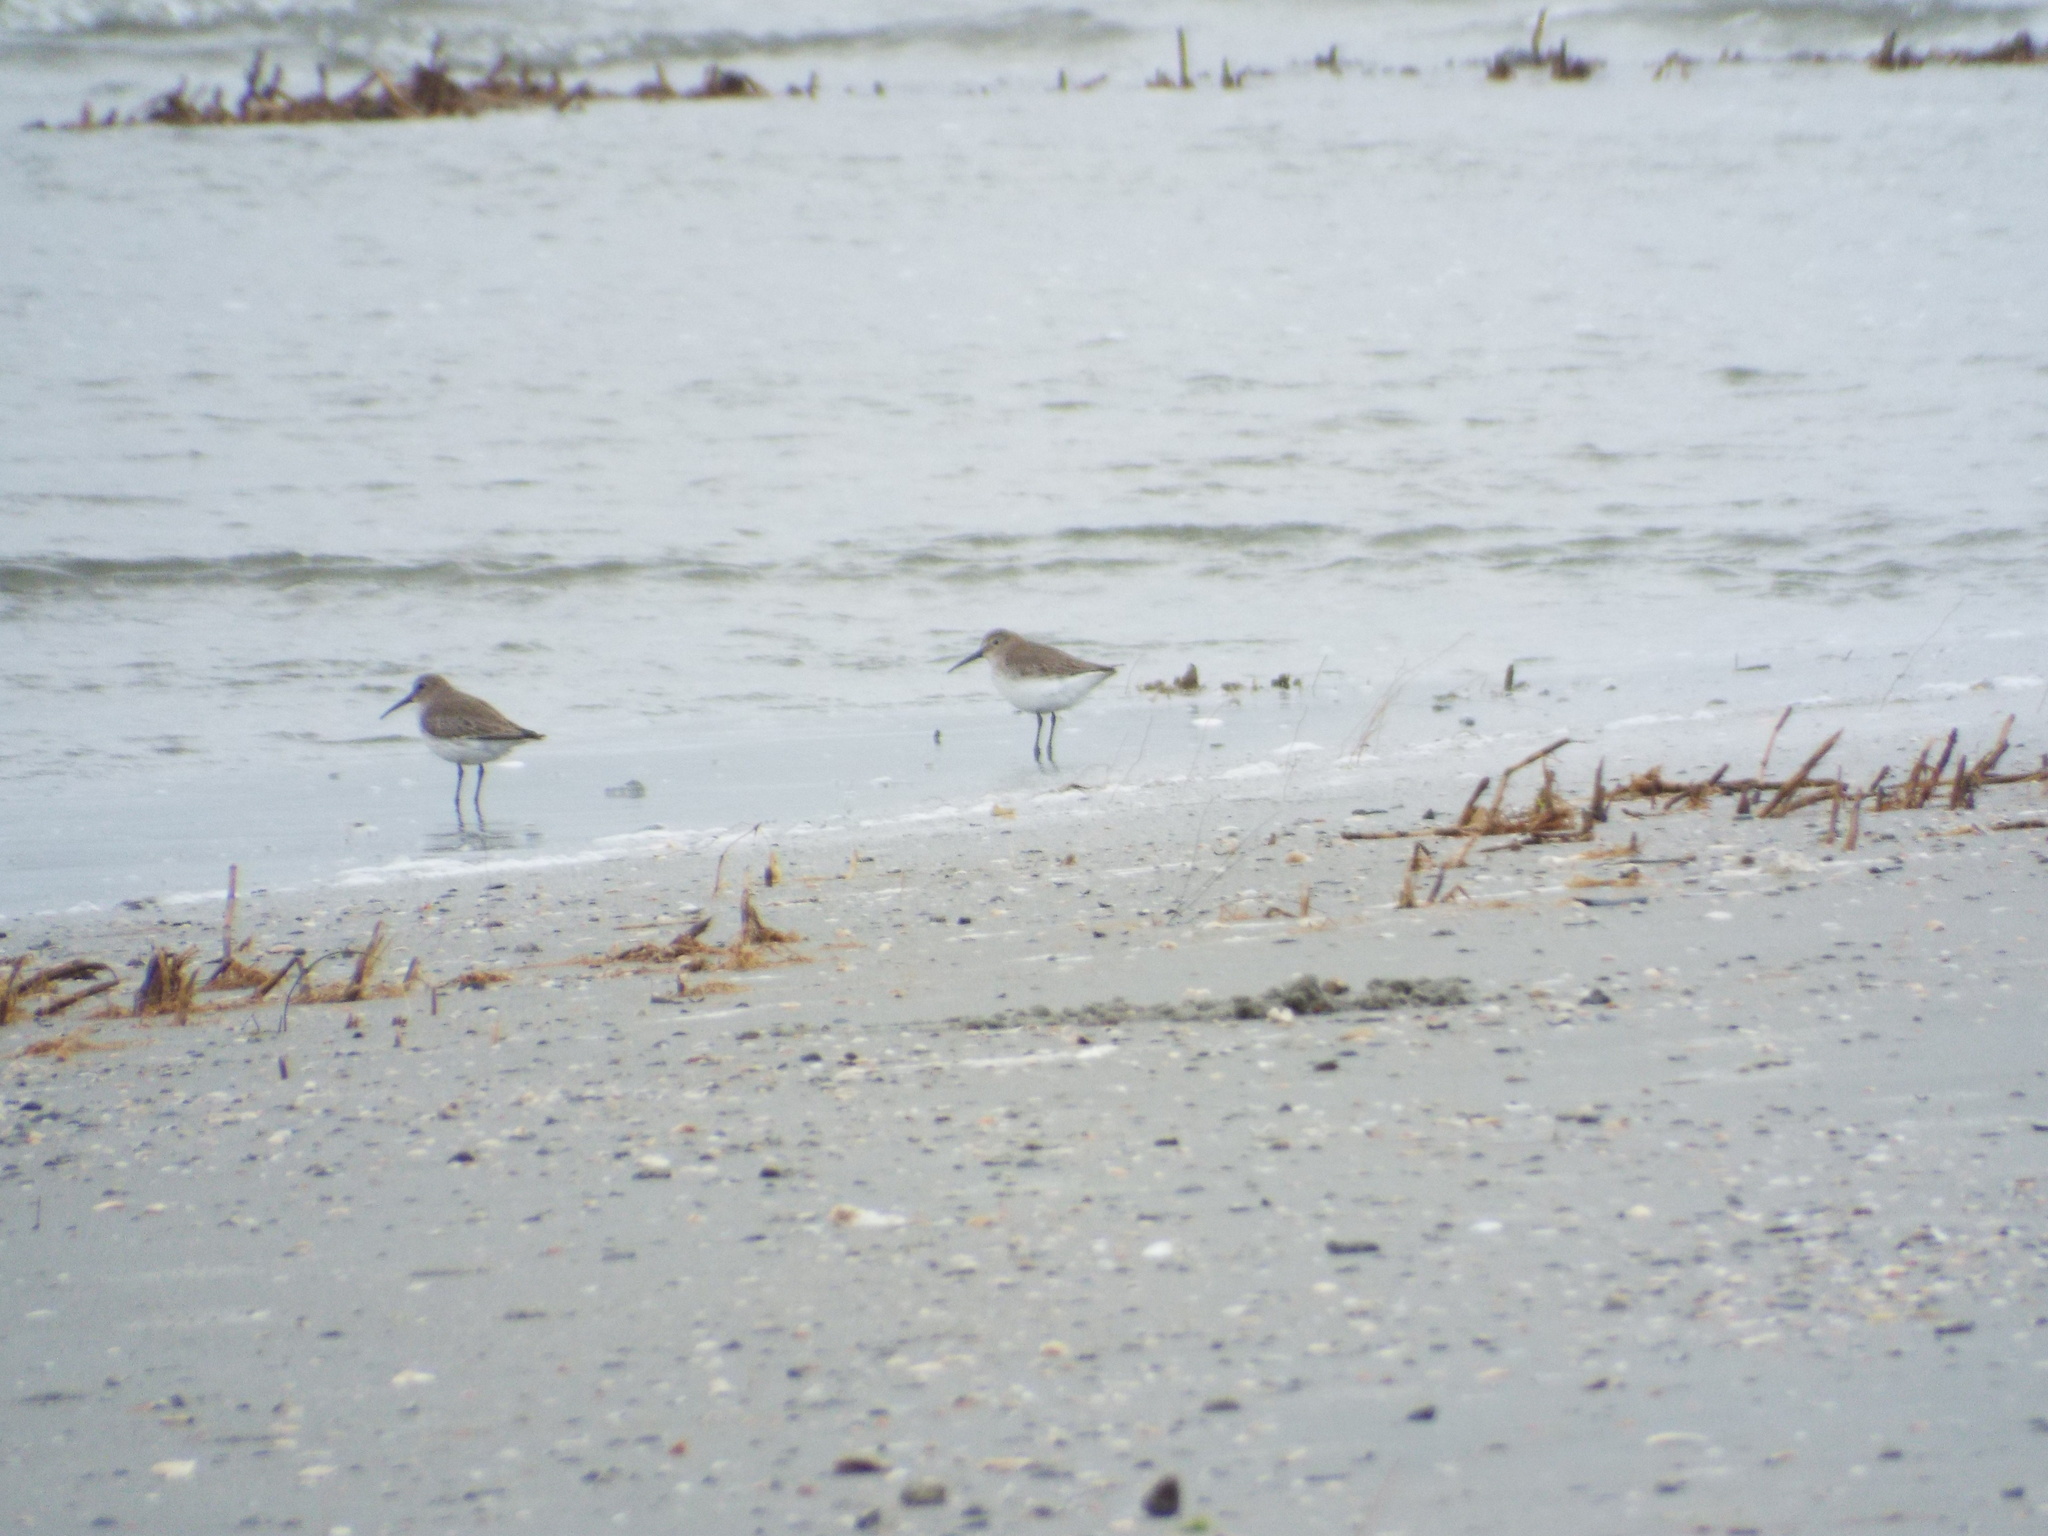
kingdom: Animalia
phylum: Chordata
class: Aves
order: Charadriiformes
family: Scolopacidae
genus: Calidris
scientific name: Calidris alpina
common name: Dunlin
